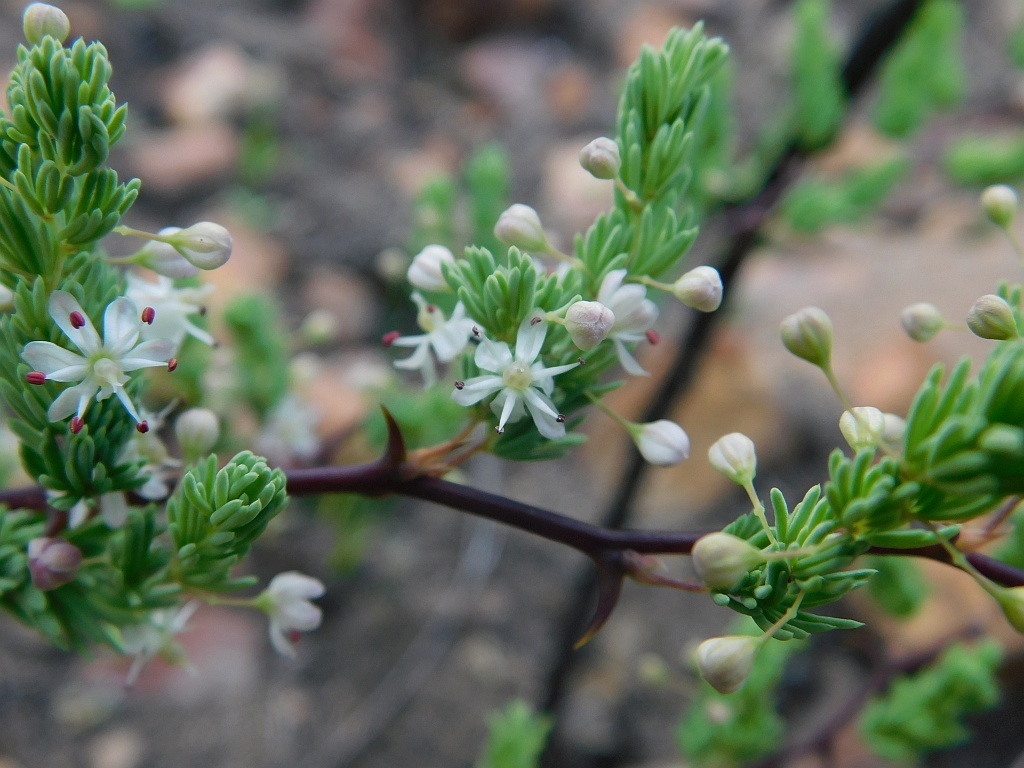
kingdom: Plantae
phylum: Tracheophyta
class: Liliopsida
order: Asparagales
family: Asparagaceae
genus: Asparagus
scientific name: Asparagus rubicundus
